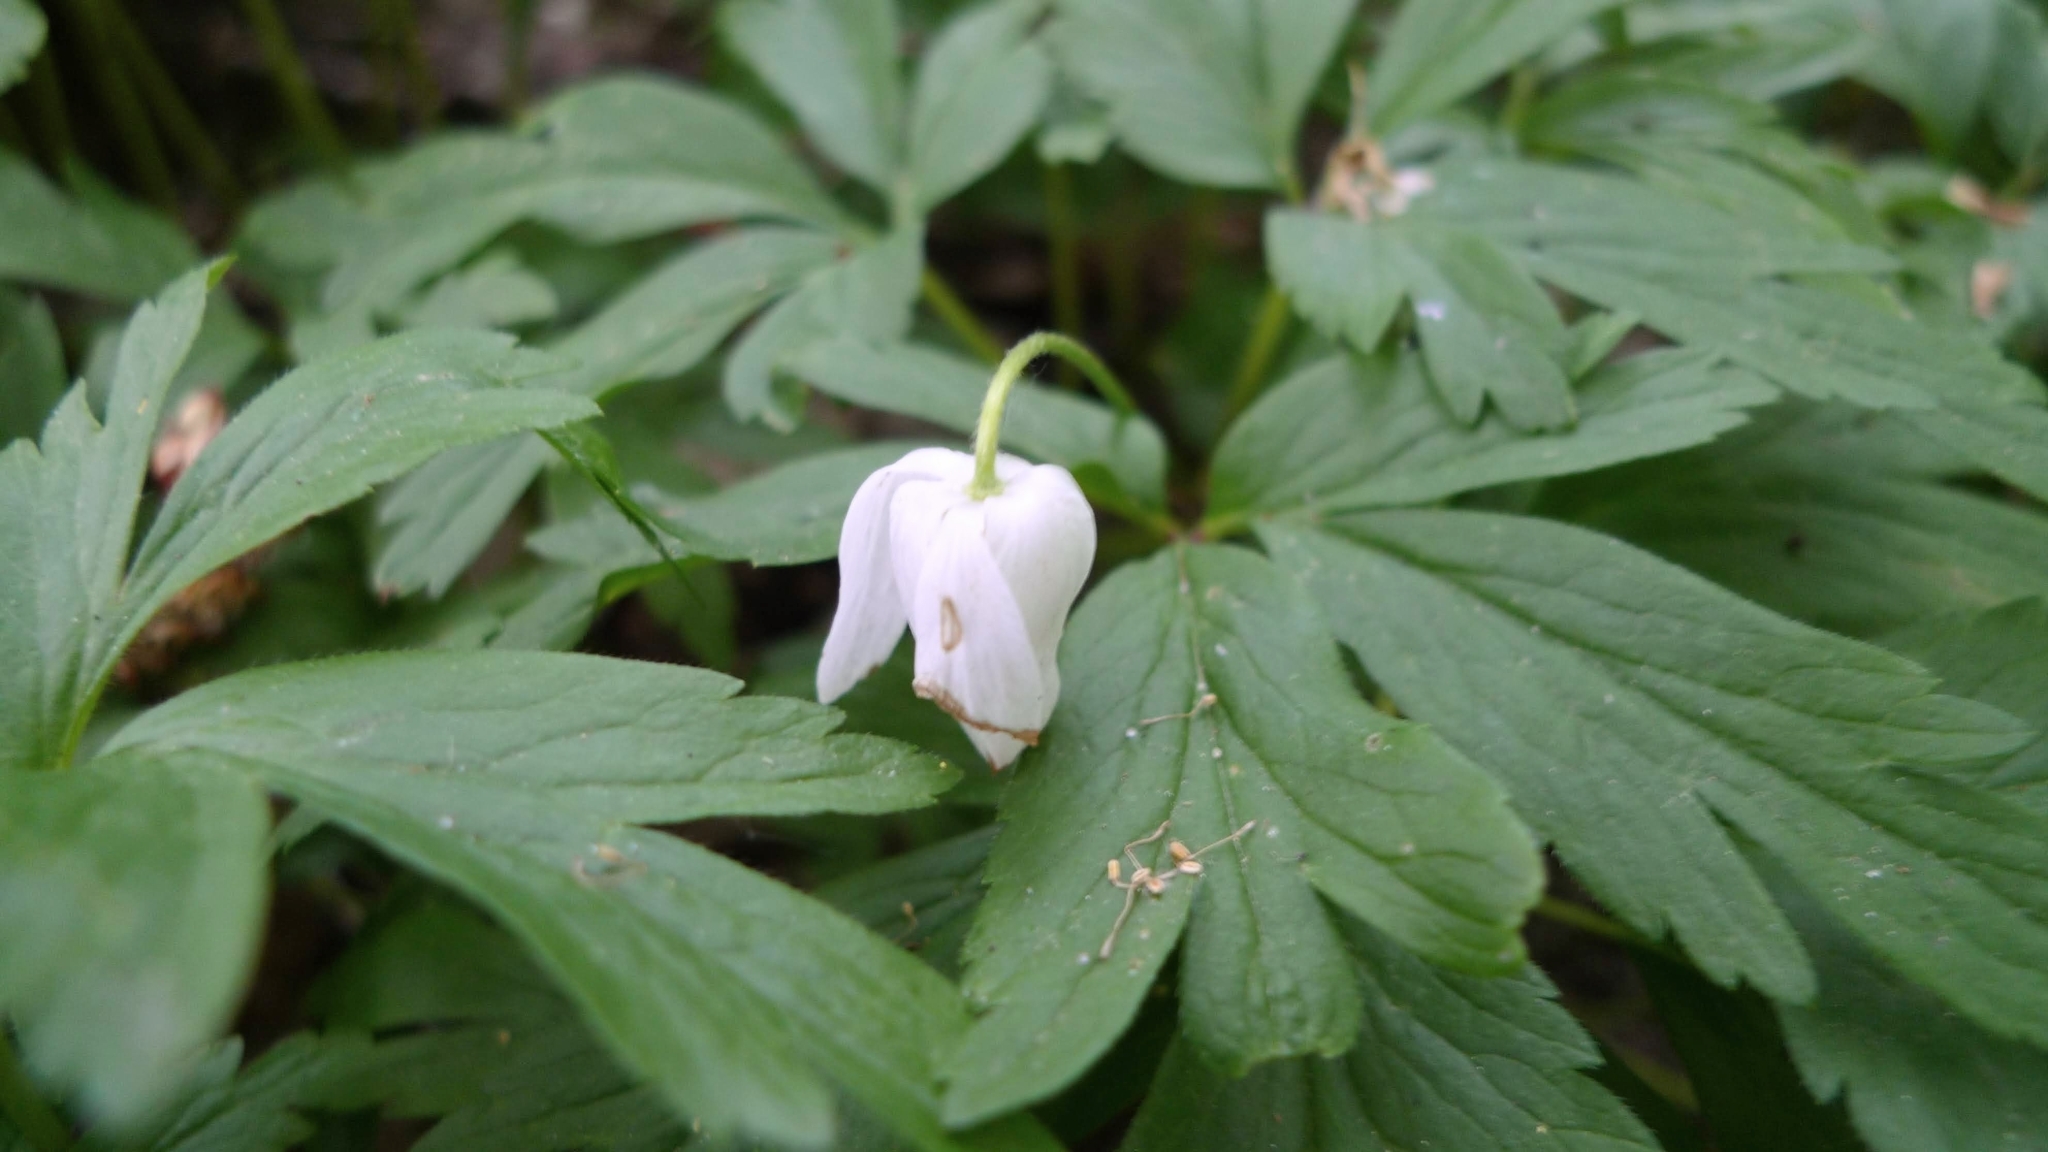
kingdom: Plantae
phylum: Tracheophyta
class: Magnoliopsida
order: Ranunculales
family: Ranunculaceae
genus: Anemone
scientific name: Anemone nemorosa
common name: Wood anemone
